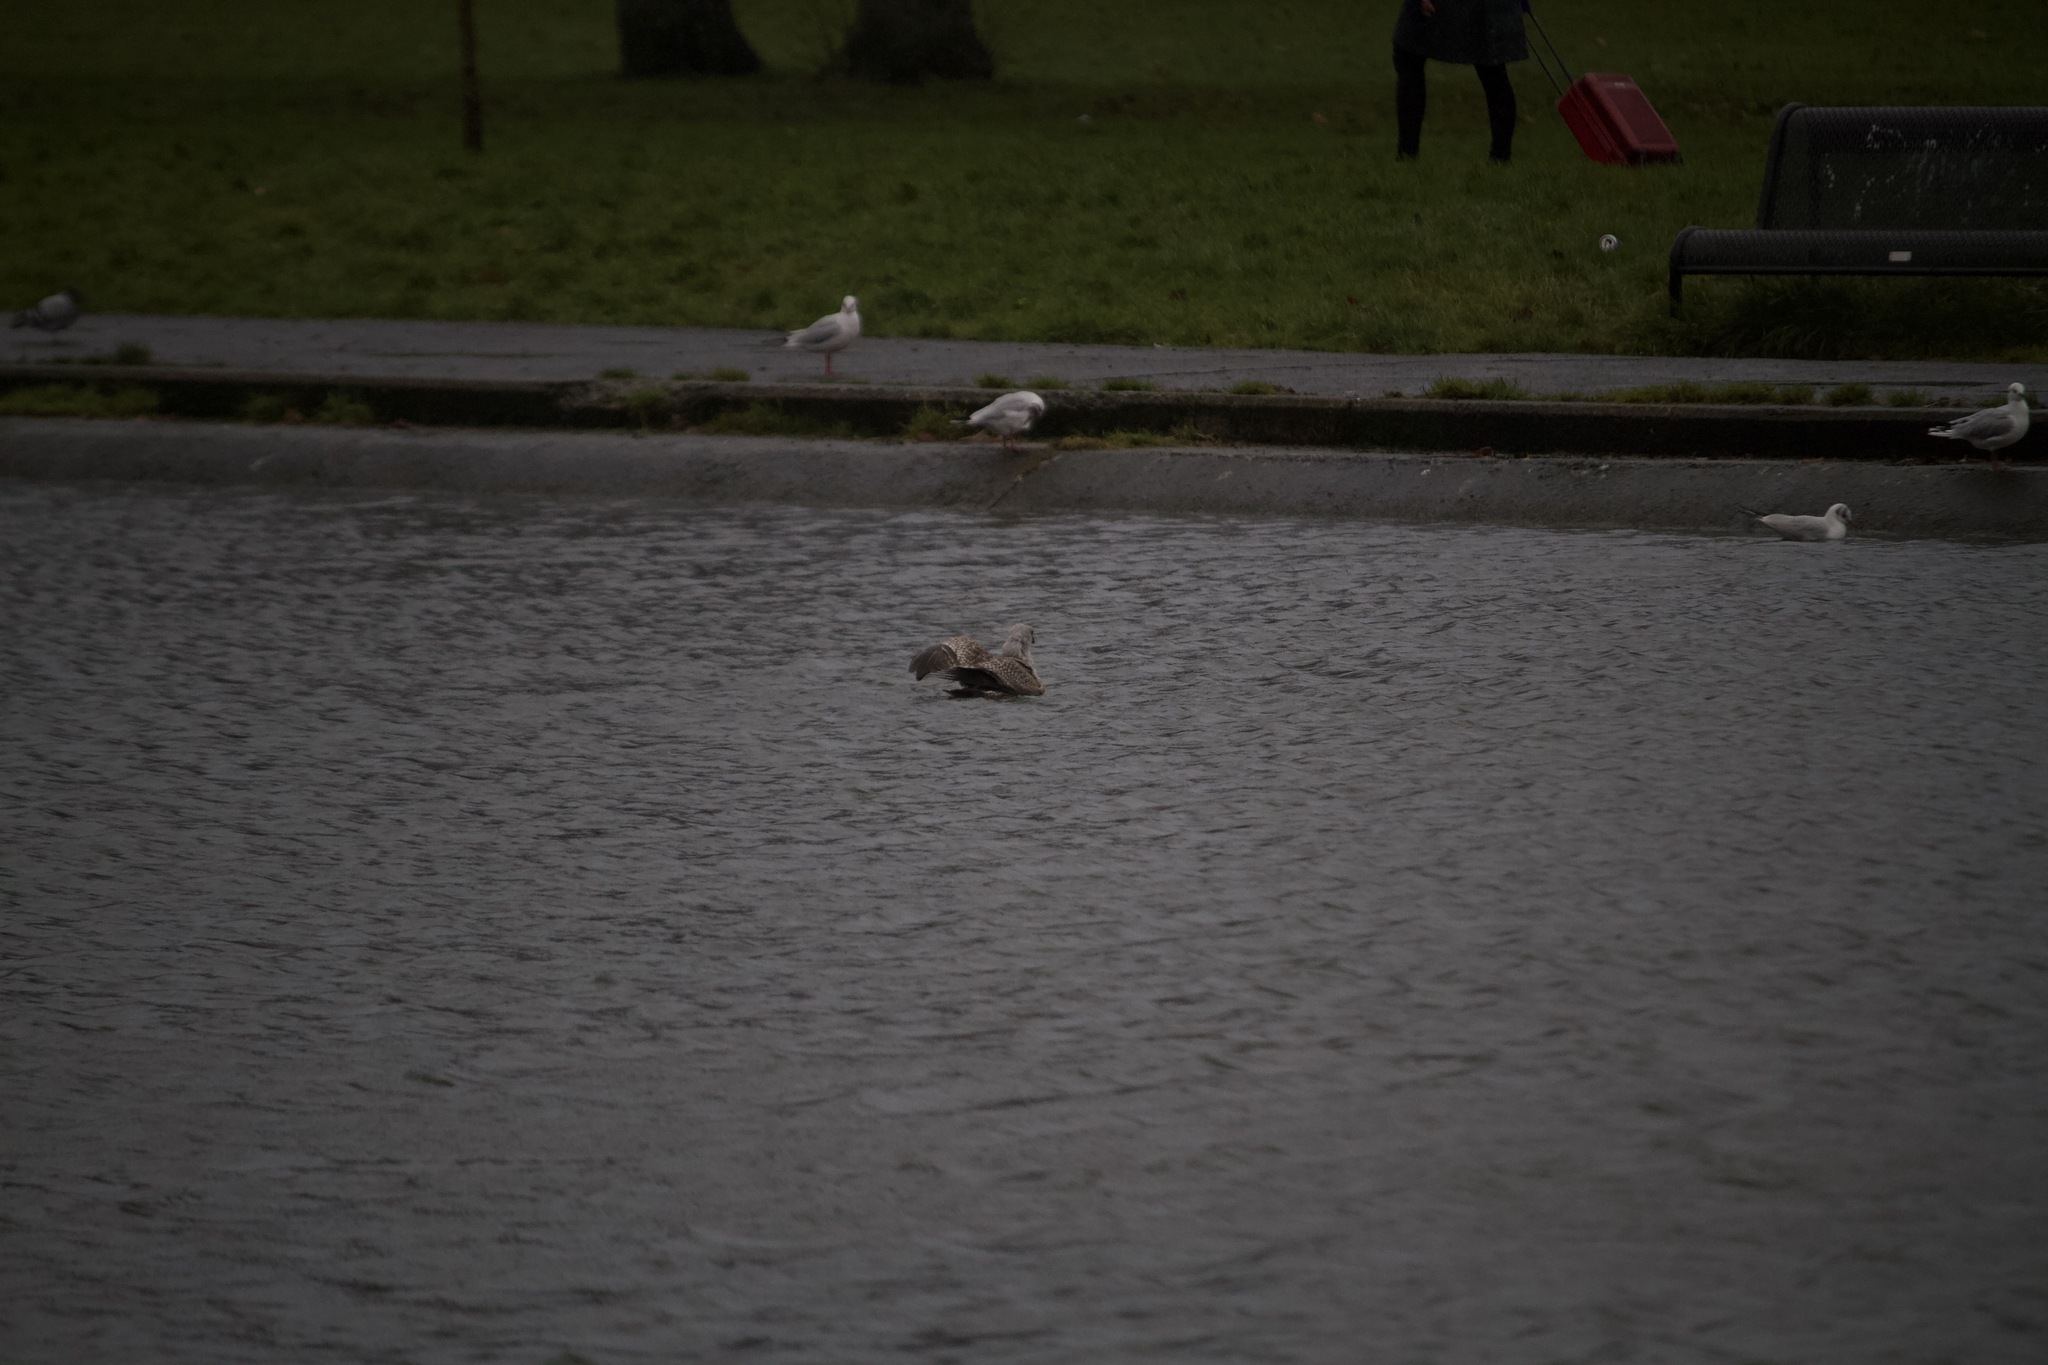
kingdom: Animalia
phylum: Chordata
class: Aves
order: Charadriiformes
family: Laridae
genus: Larus
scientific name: Larus argentatus
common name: Herring gull
